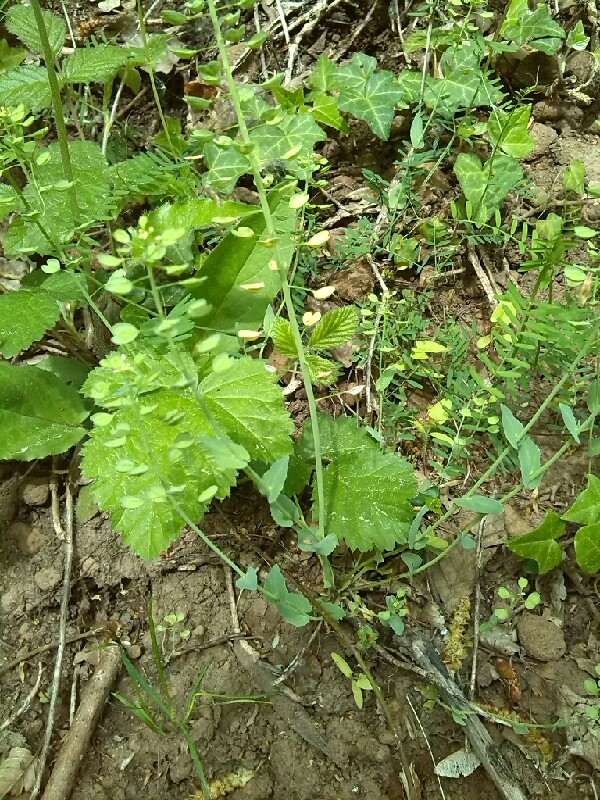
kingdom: Plantae
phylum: Tracheophyta
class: Magnoliopsida
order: Brassicales
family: Brassicaceae
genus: Noccaea
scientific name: Noccaea perfoliata
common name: Perfoliate pennycress
